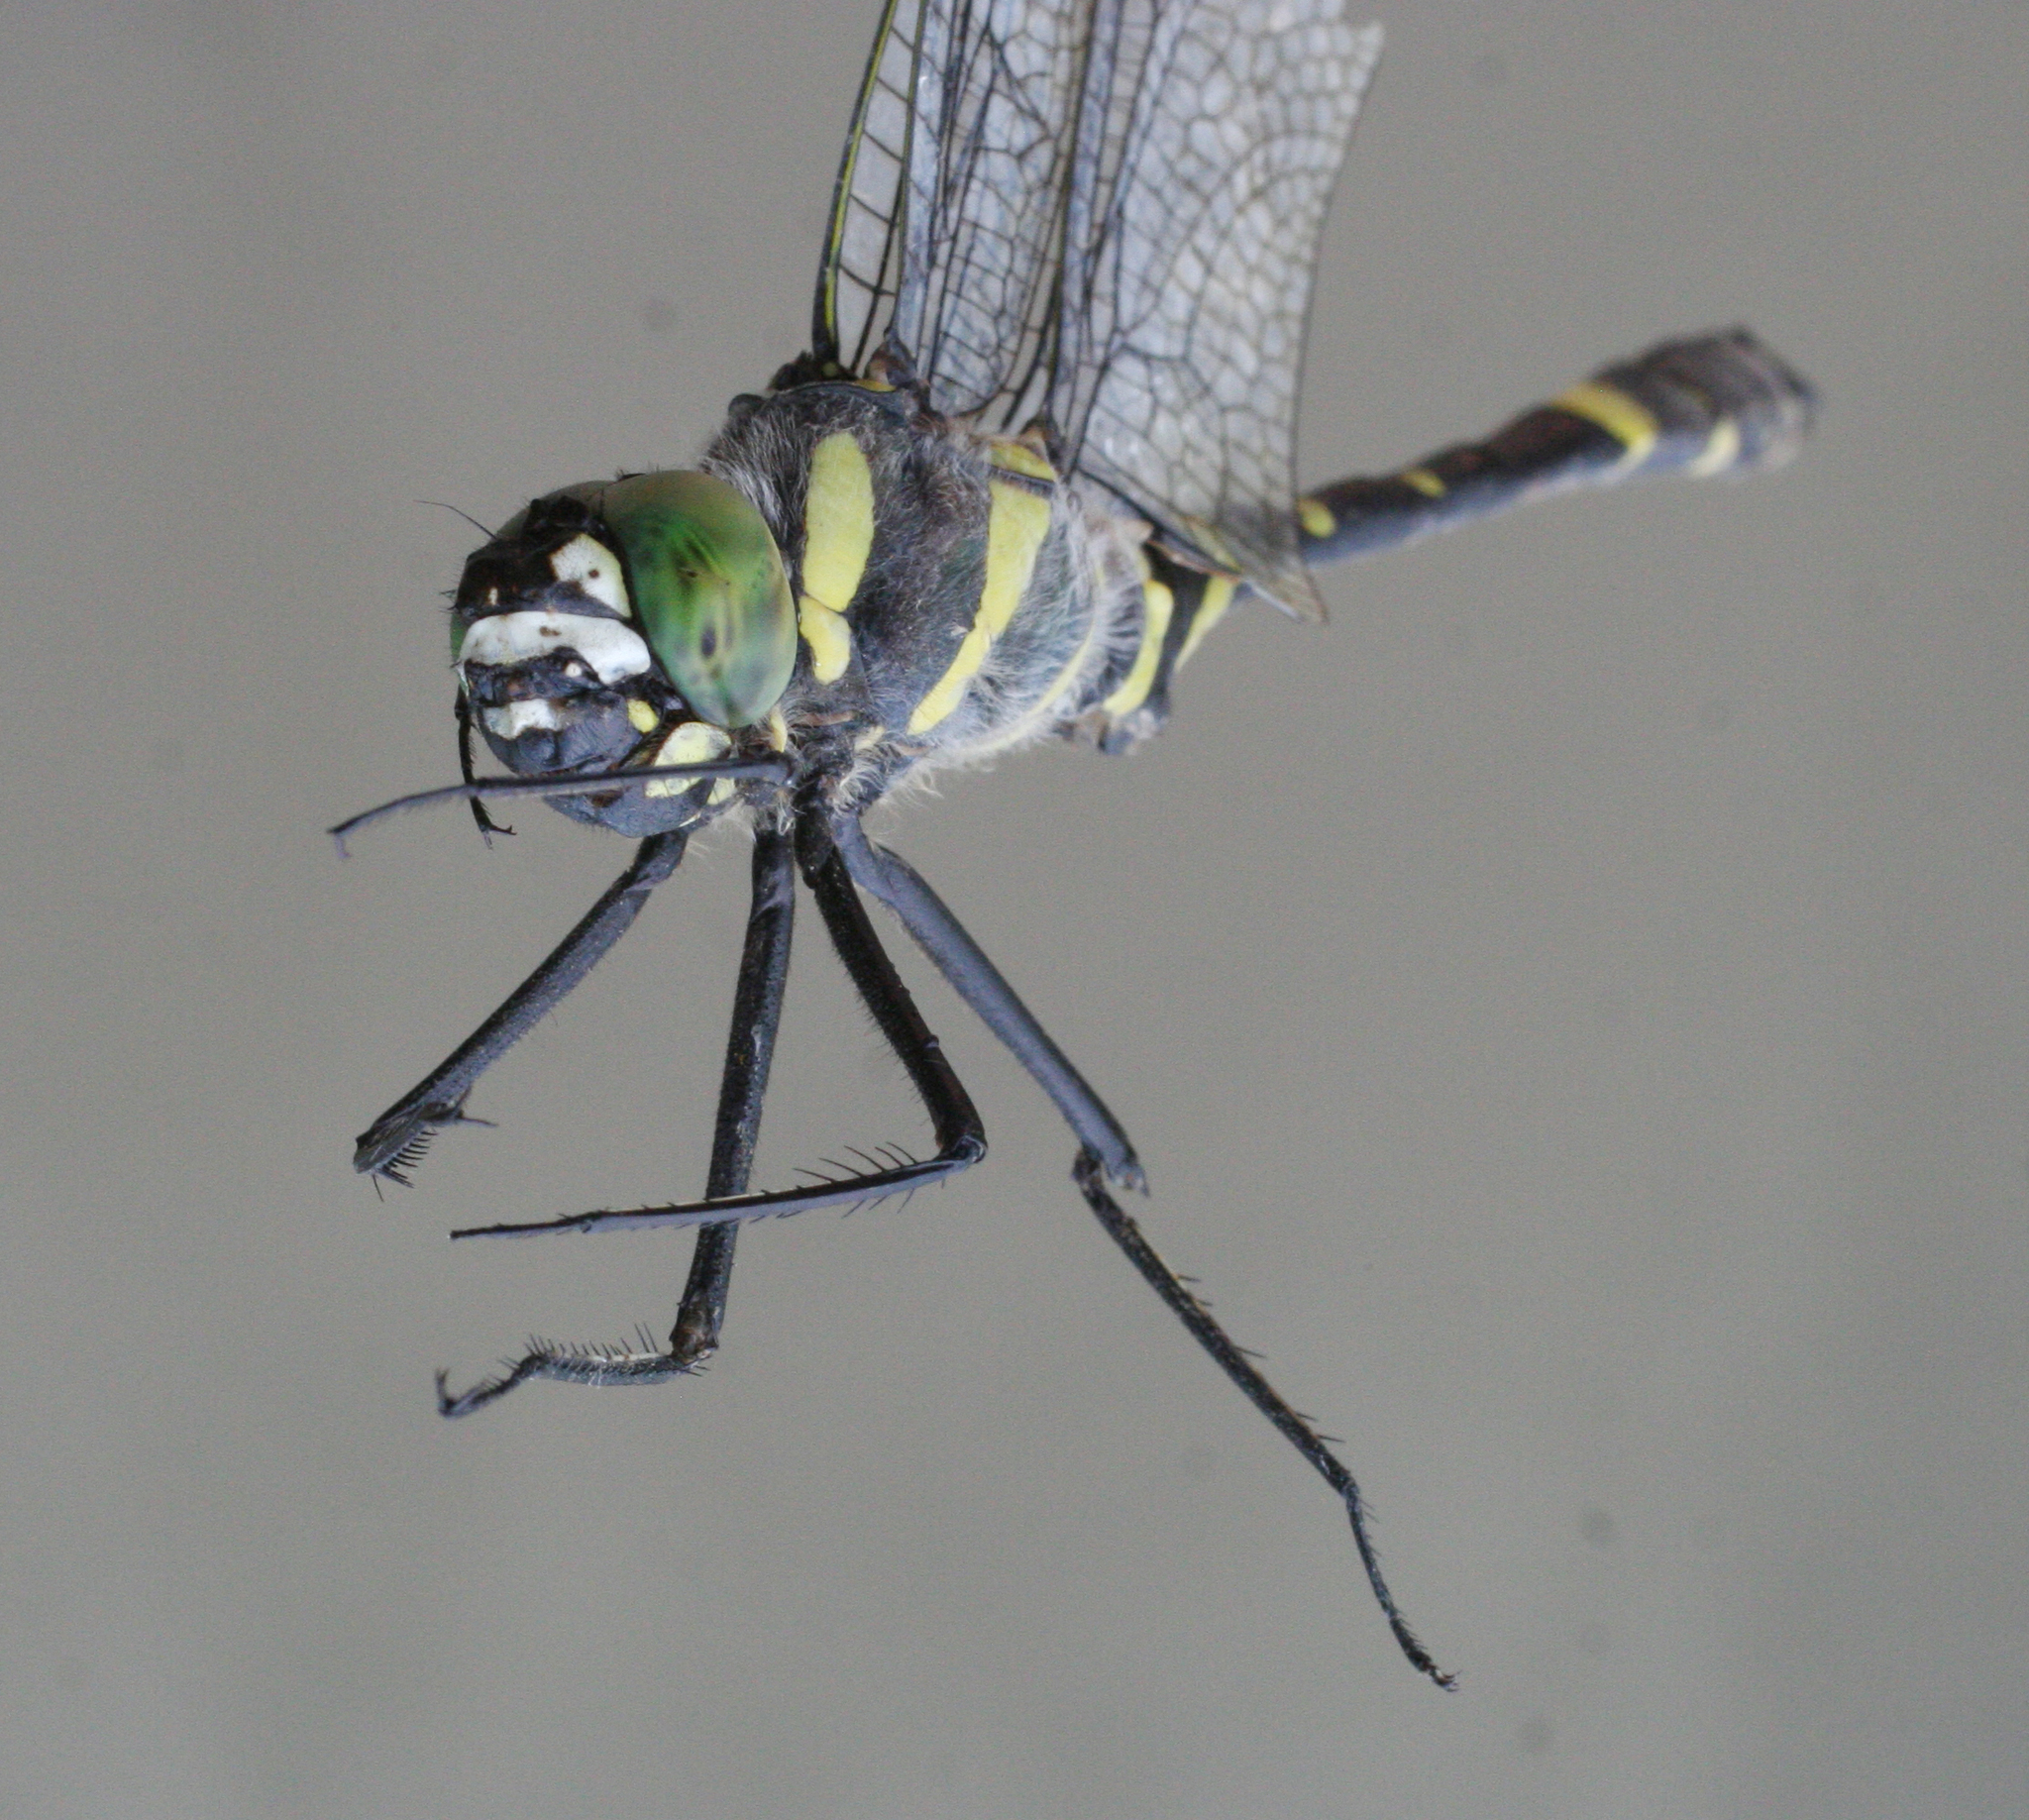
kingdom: Animalia
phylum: Arthropoda
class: Insecta
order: Odonata
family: Macromiidae
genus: Epophthalmia
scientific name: Epophthalmia elegans
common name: Regal pond cruiser
